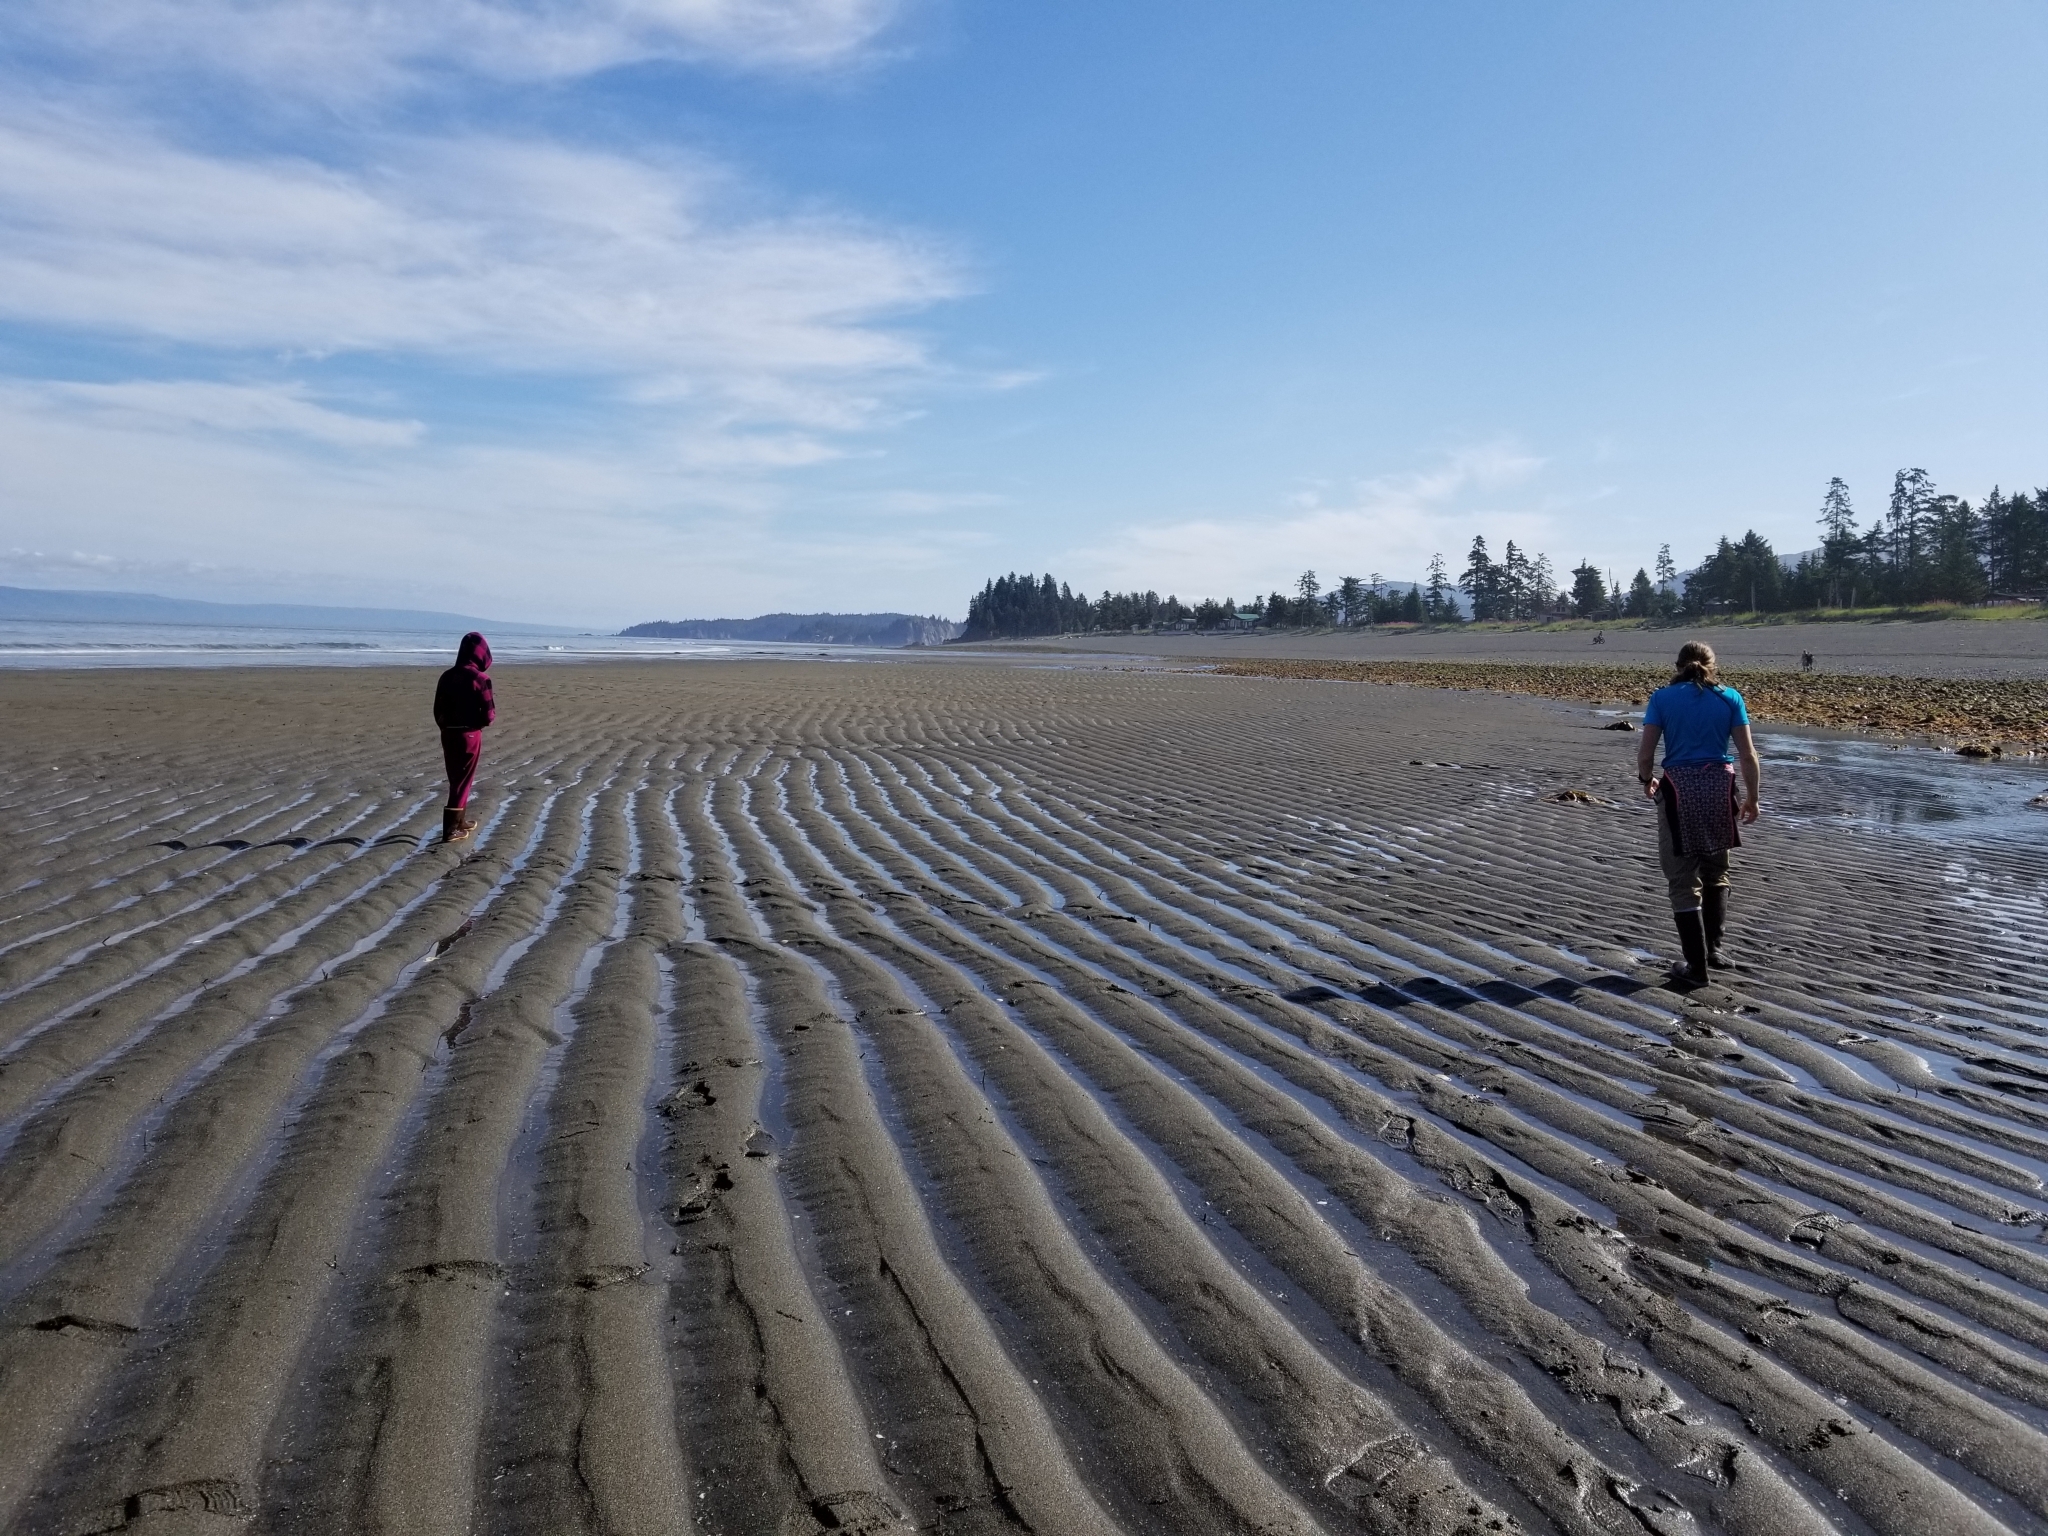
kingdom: Animalia
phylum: Mollusca
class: Gastropoda
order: Neogastropoda
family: Olividae
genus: Callianax
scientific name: Callianax alectona
